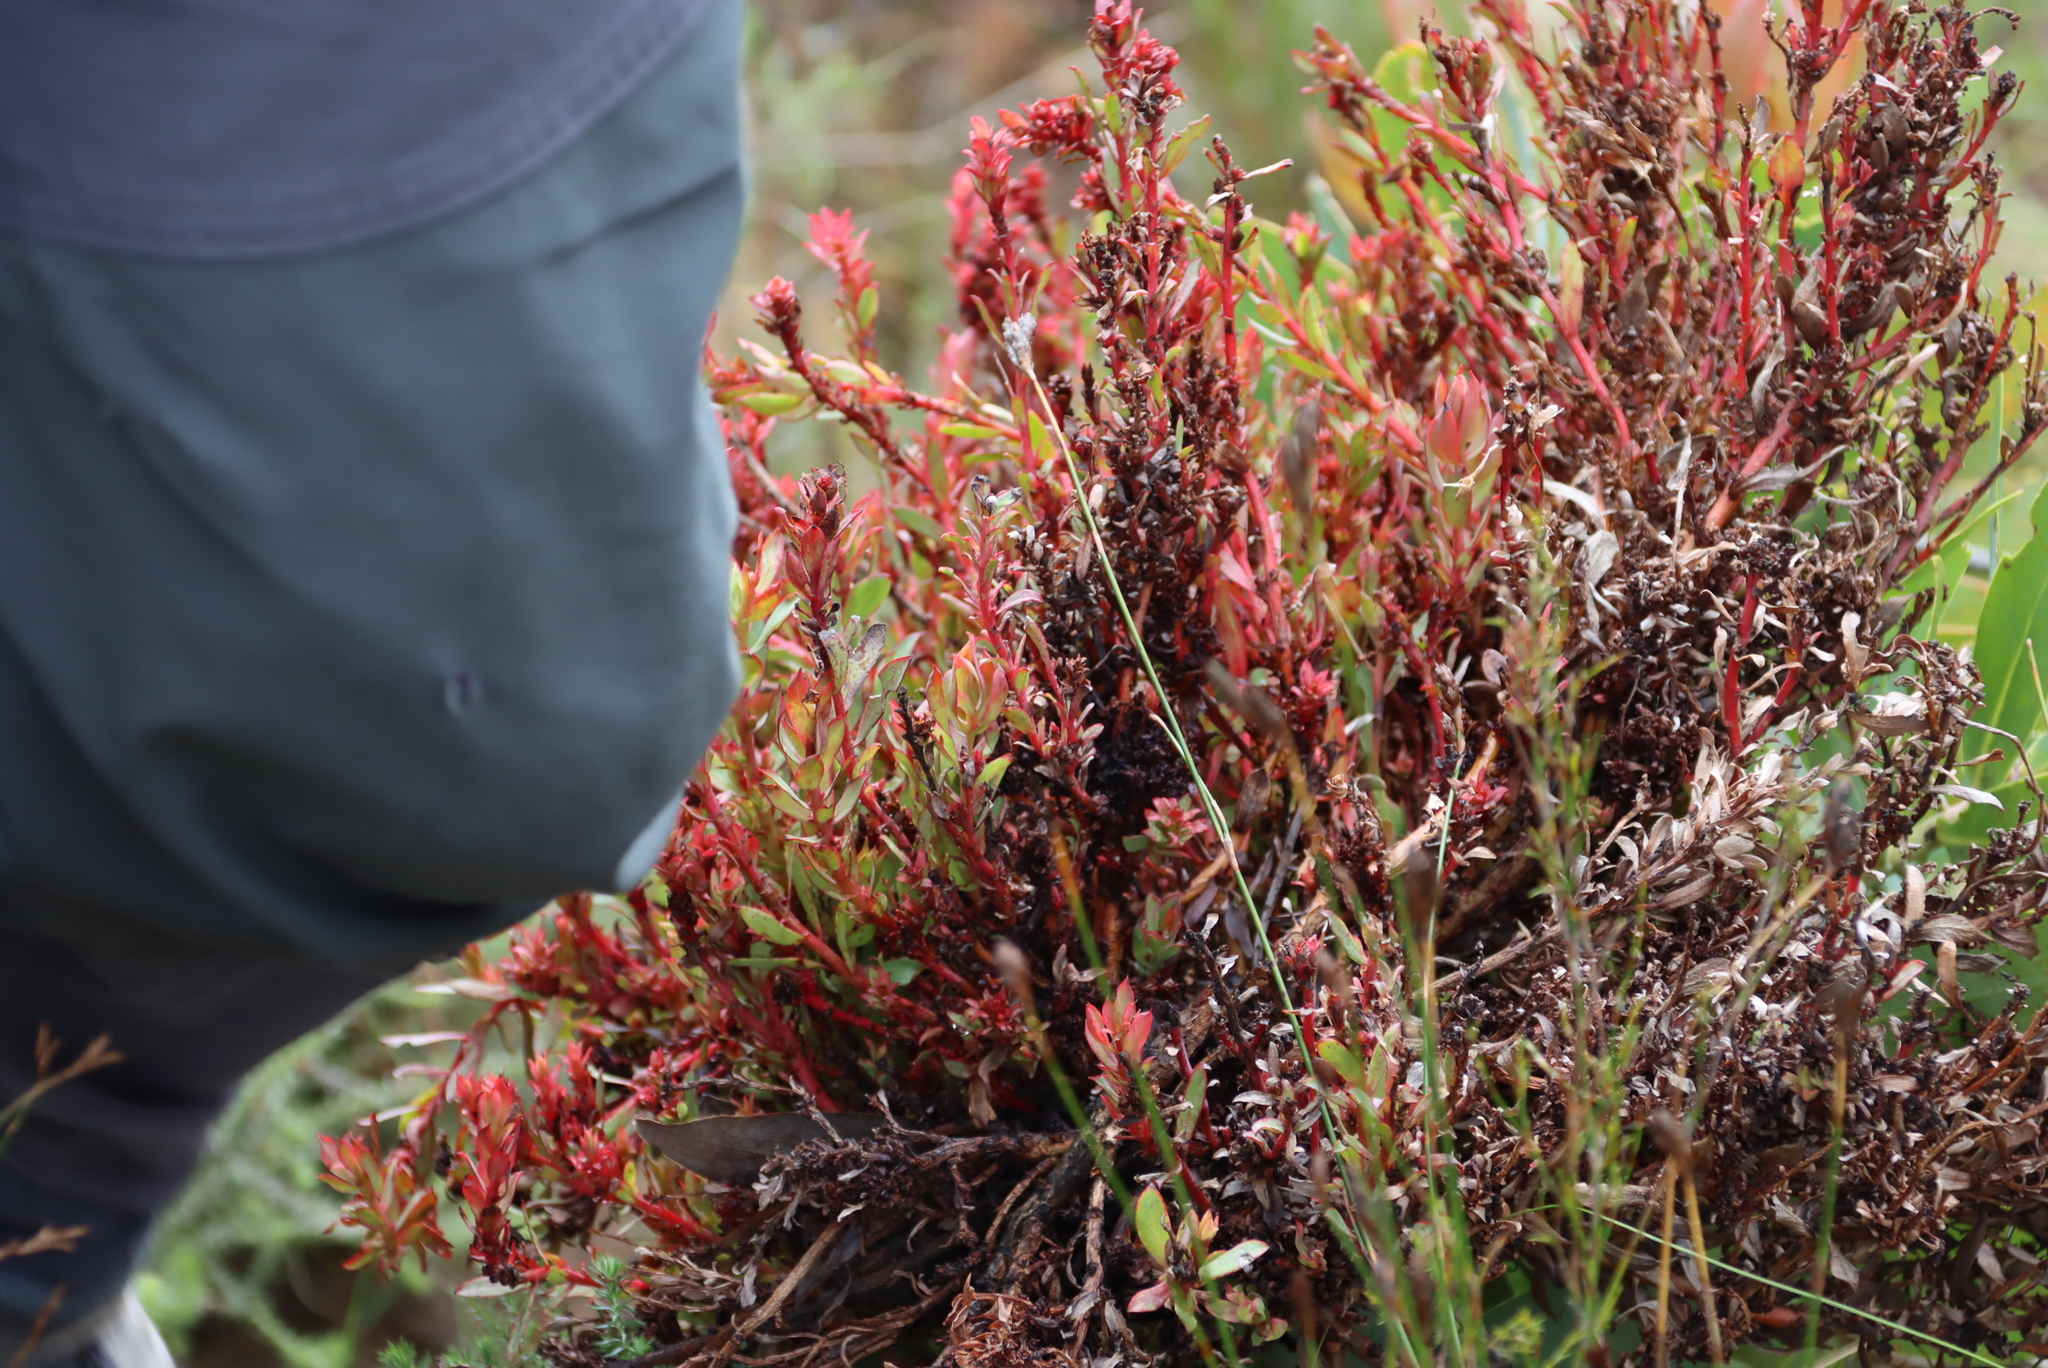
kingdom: Bacteria
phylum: Firmicutes
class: Bacilli
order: Acholeplasmatales
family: Acholeplasmataceae
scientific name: Acholeplasmataceae
